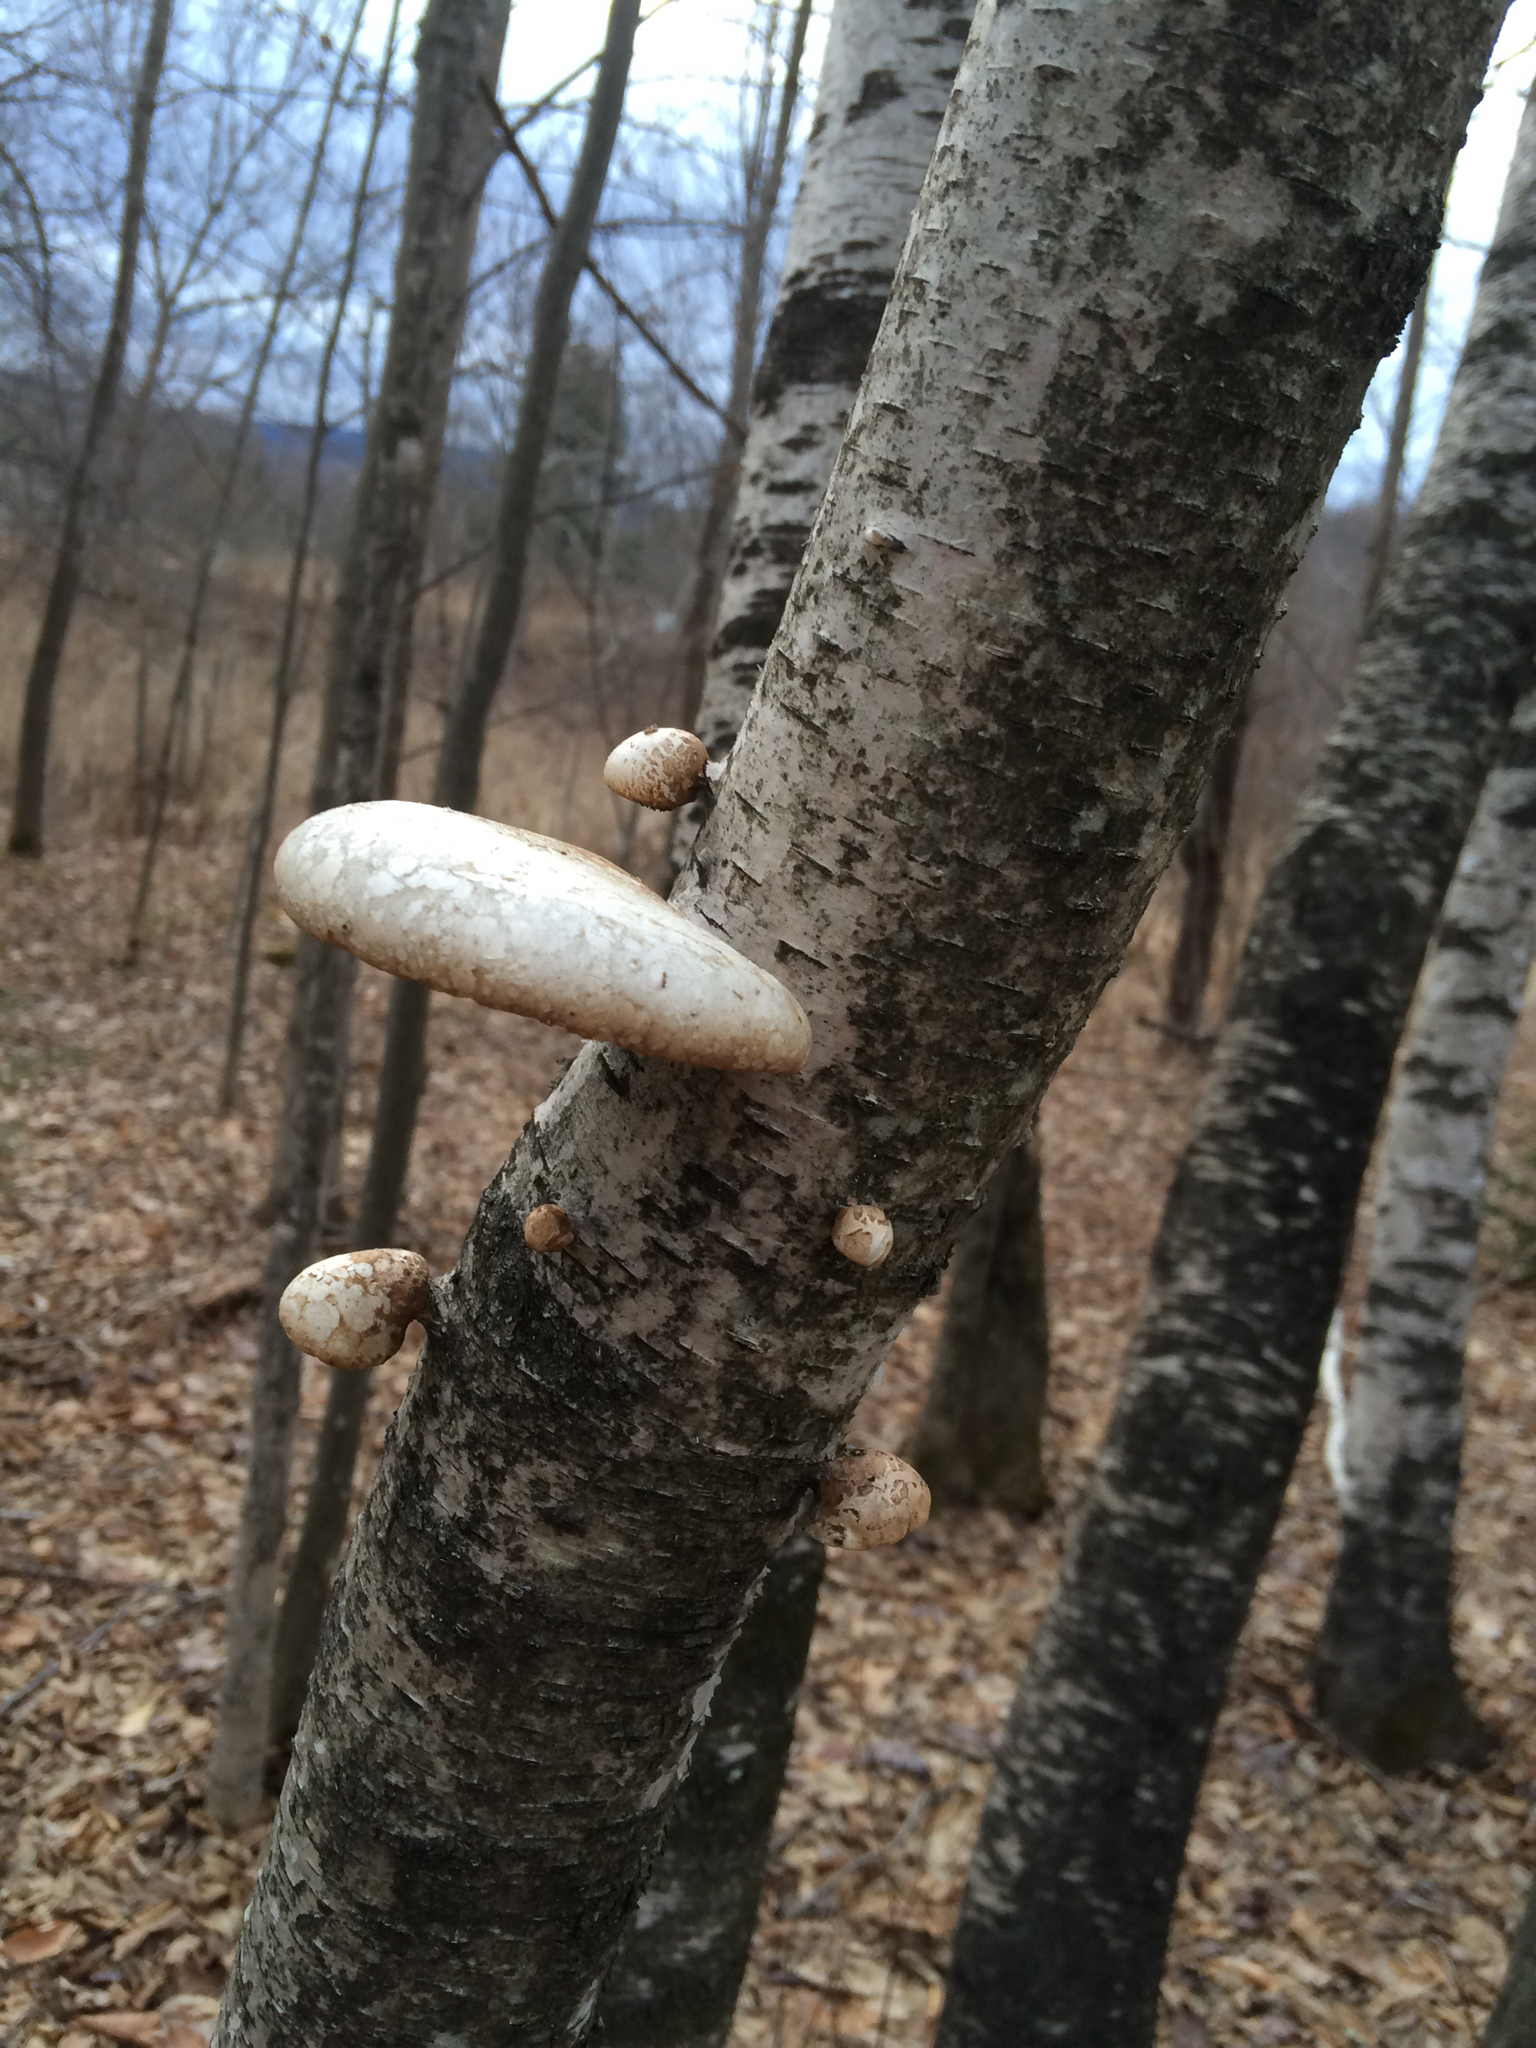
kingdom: Fungi
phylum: Basidiomycota
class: Agaricomycetes
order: Polyporales
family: Fomitopsidaceae
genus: Fomitopsis
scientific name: Fomitopsis betulina
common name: Birch polypore
